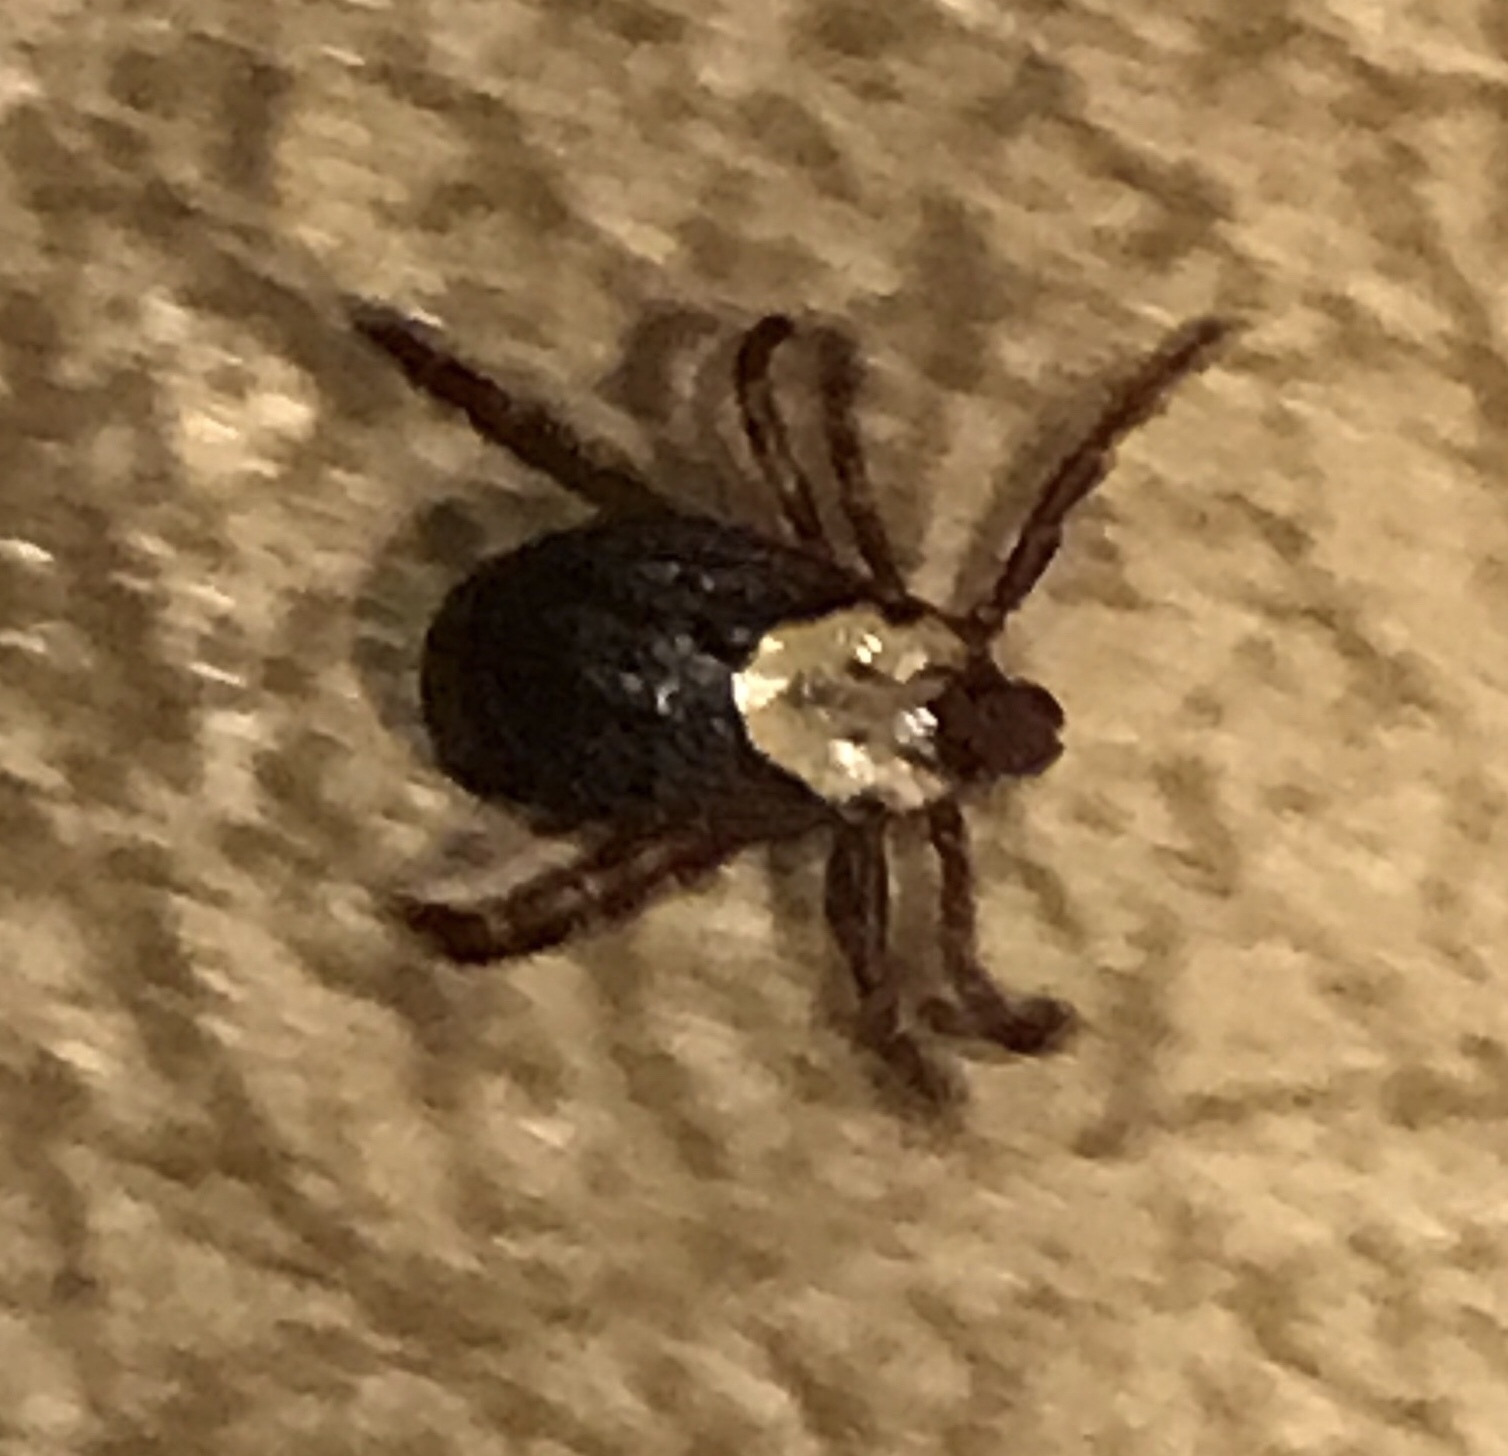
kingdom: Animalia
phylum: Arthropoda
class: Arachnida
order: Ixodida
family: Ixodidae
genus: Dermacentor
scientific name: Dermacentor occidentalis
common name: Net tick
